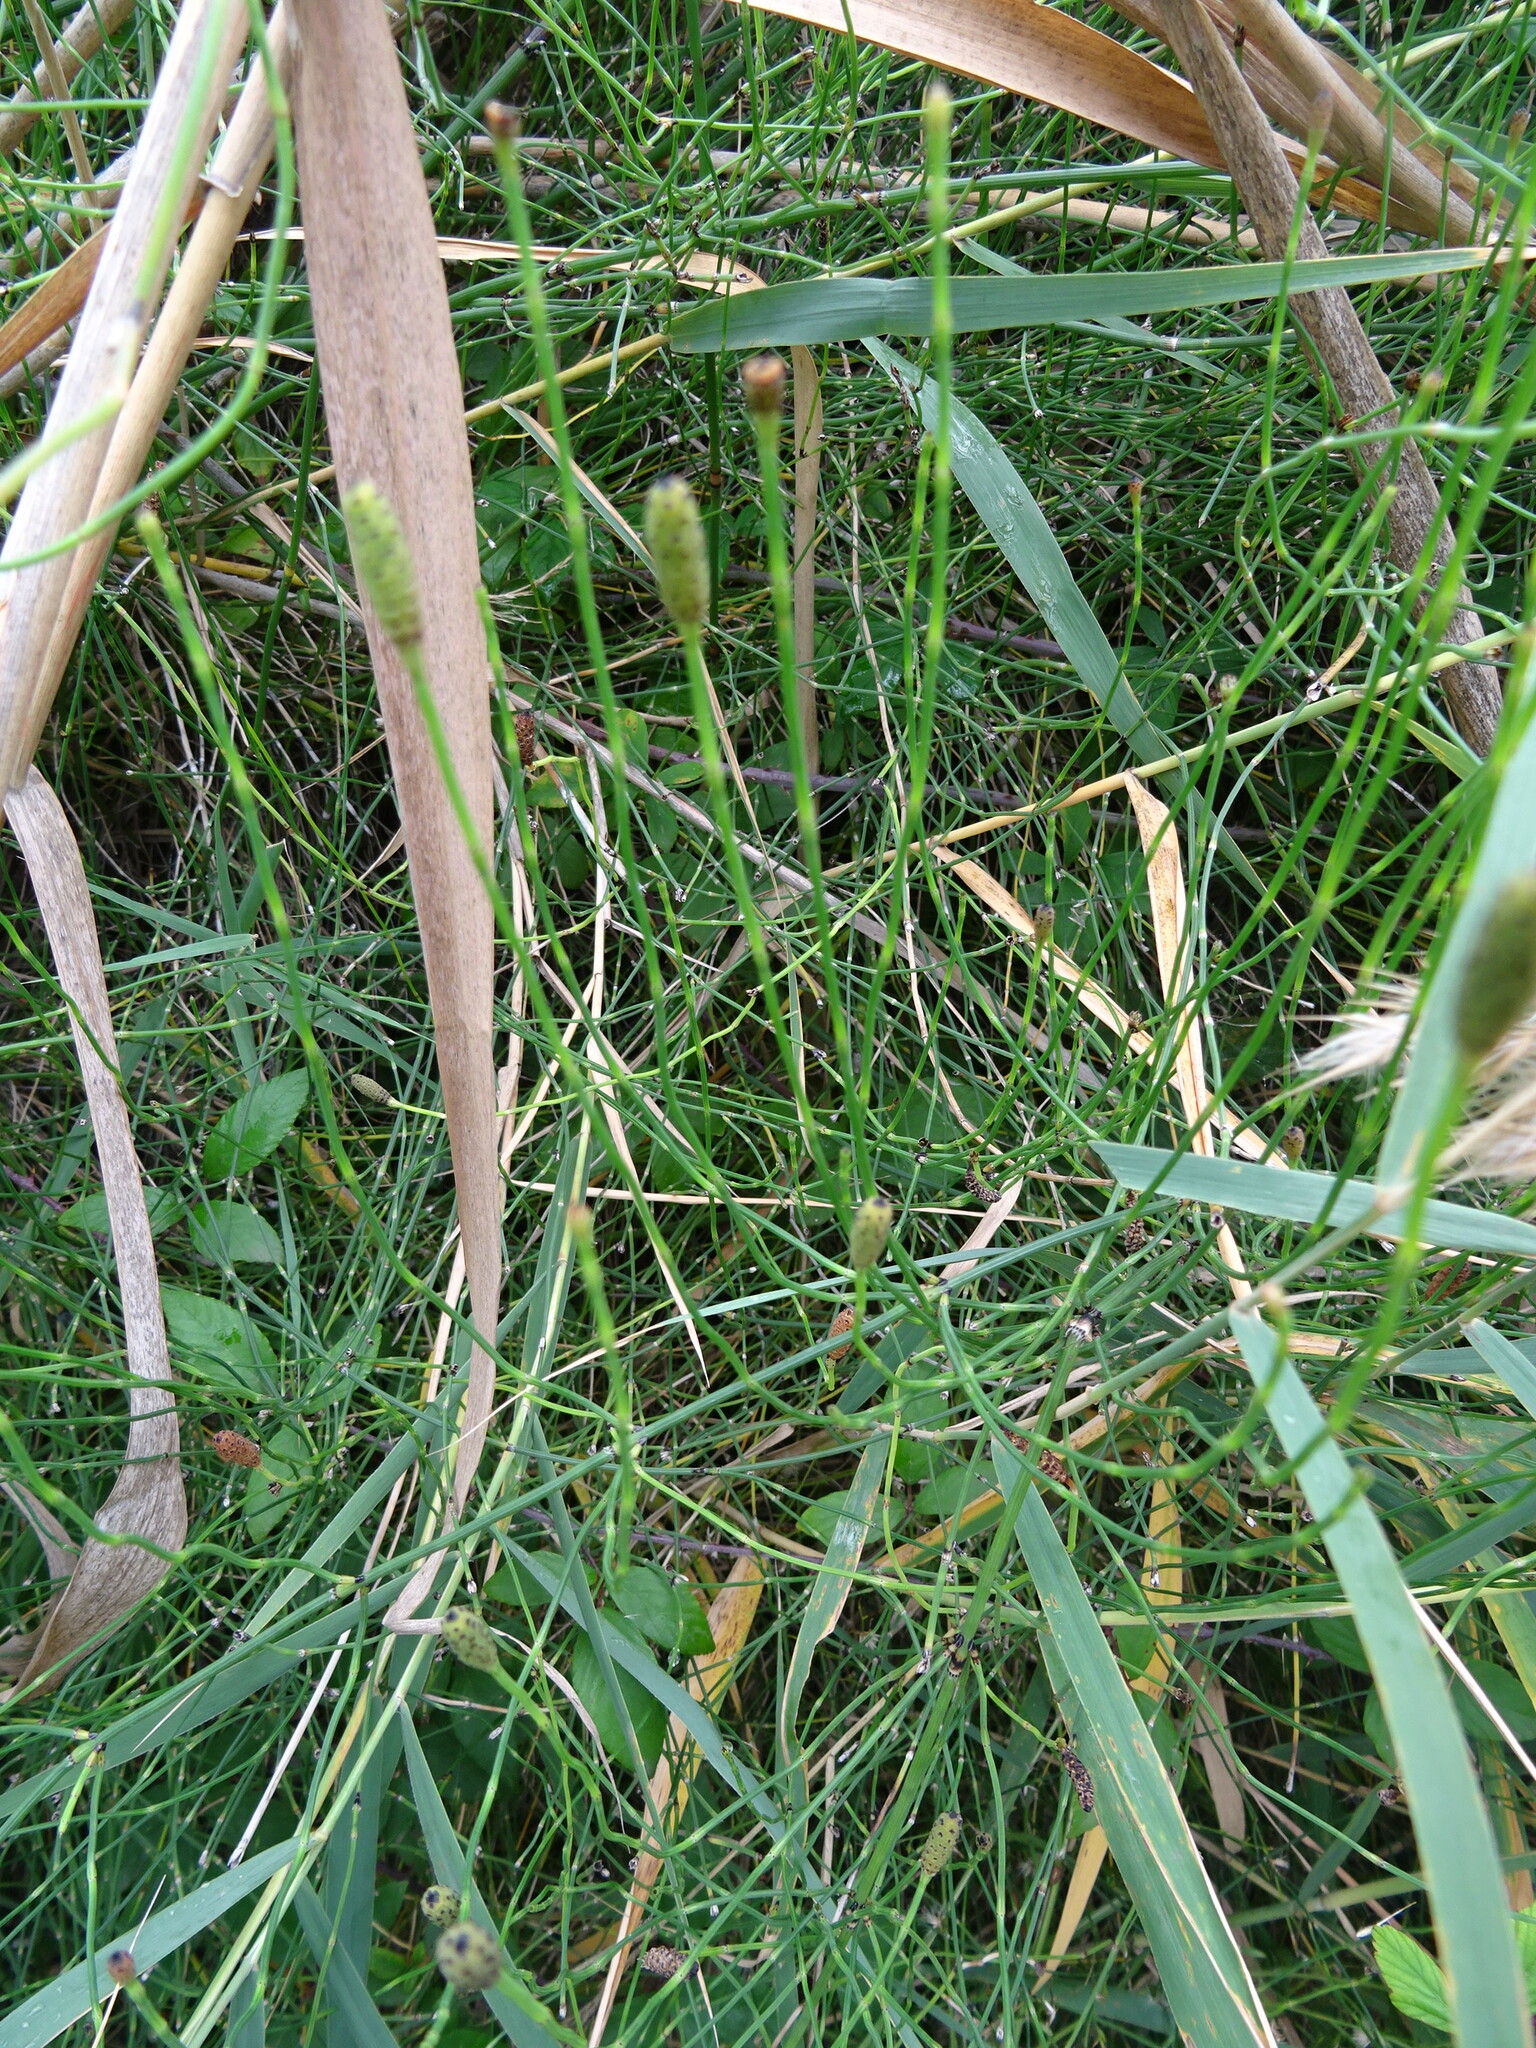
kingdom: Plantae
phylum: Tracheophyta
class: Polypodiopsida
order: Equisetales
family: Equisetaceae
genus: Equisetum
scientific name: Equisetum ramosissimum
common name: Branched horsetail
